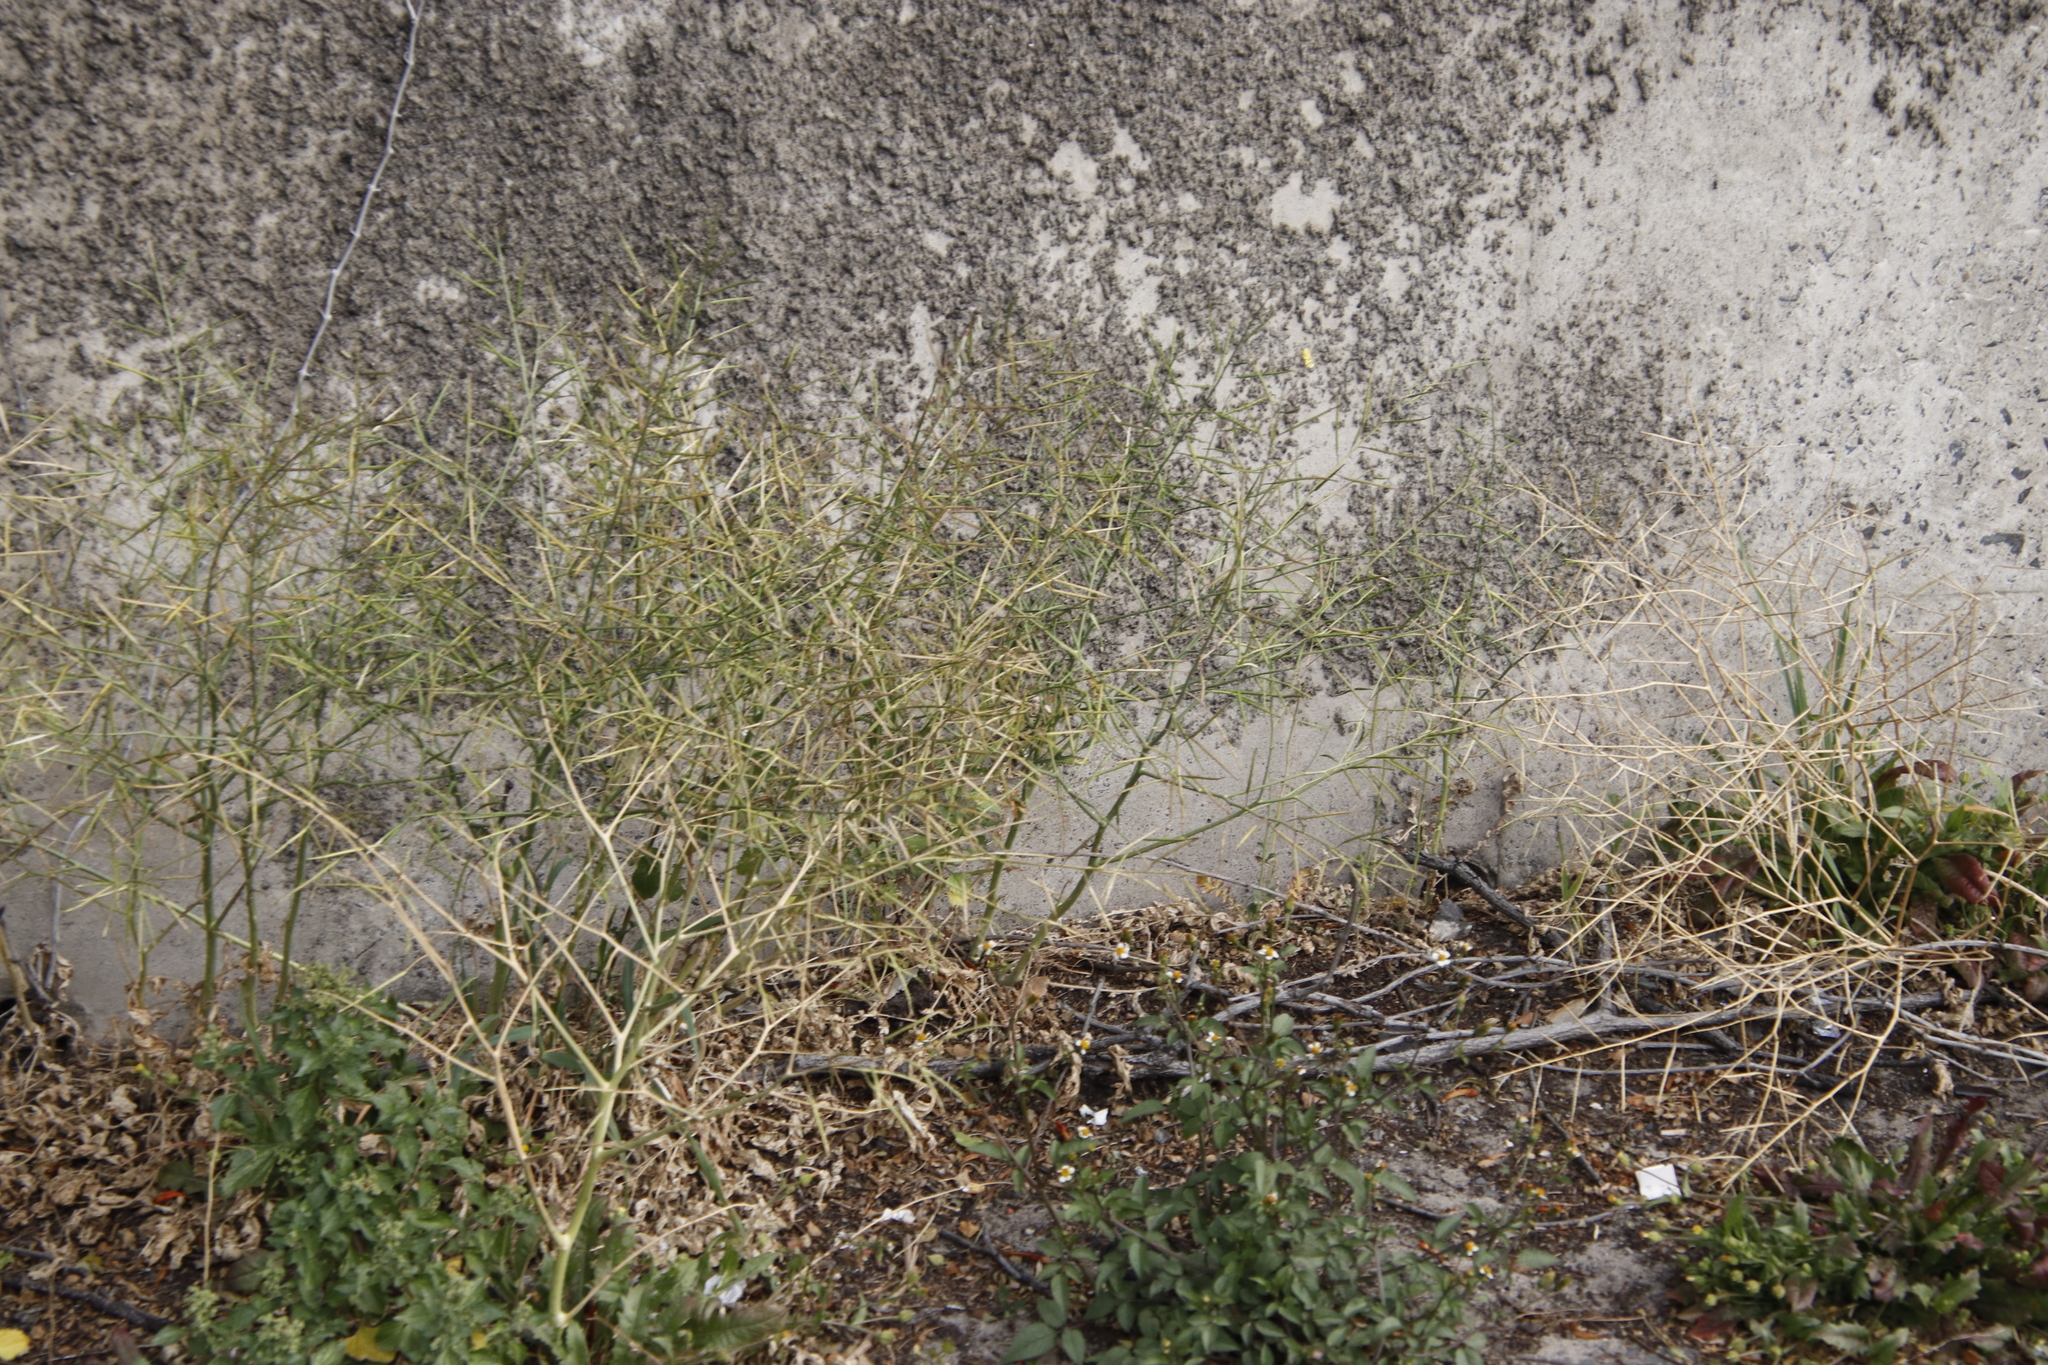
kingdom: Plantae
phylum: Tracheophyta
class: Magnoliopsida
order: Brassicales
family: Brassicaceae
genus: Brassica
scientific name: Brassica tournefortii
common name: Pale cabbage
